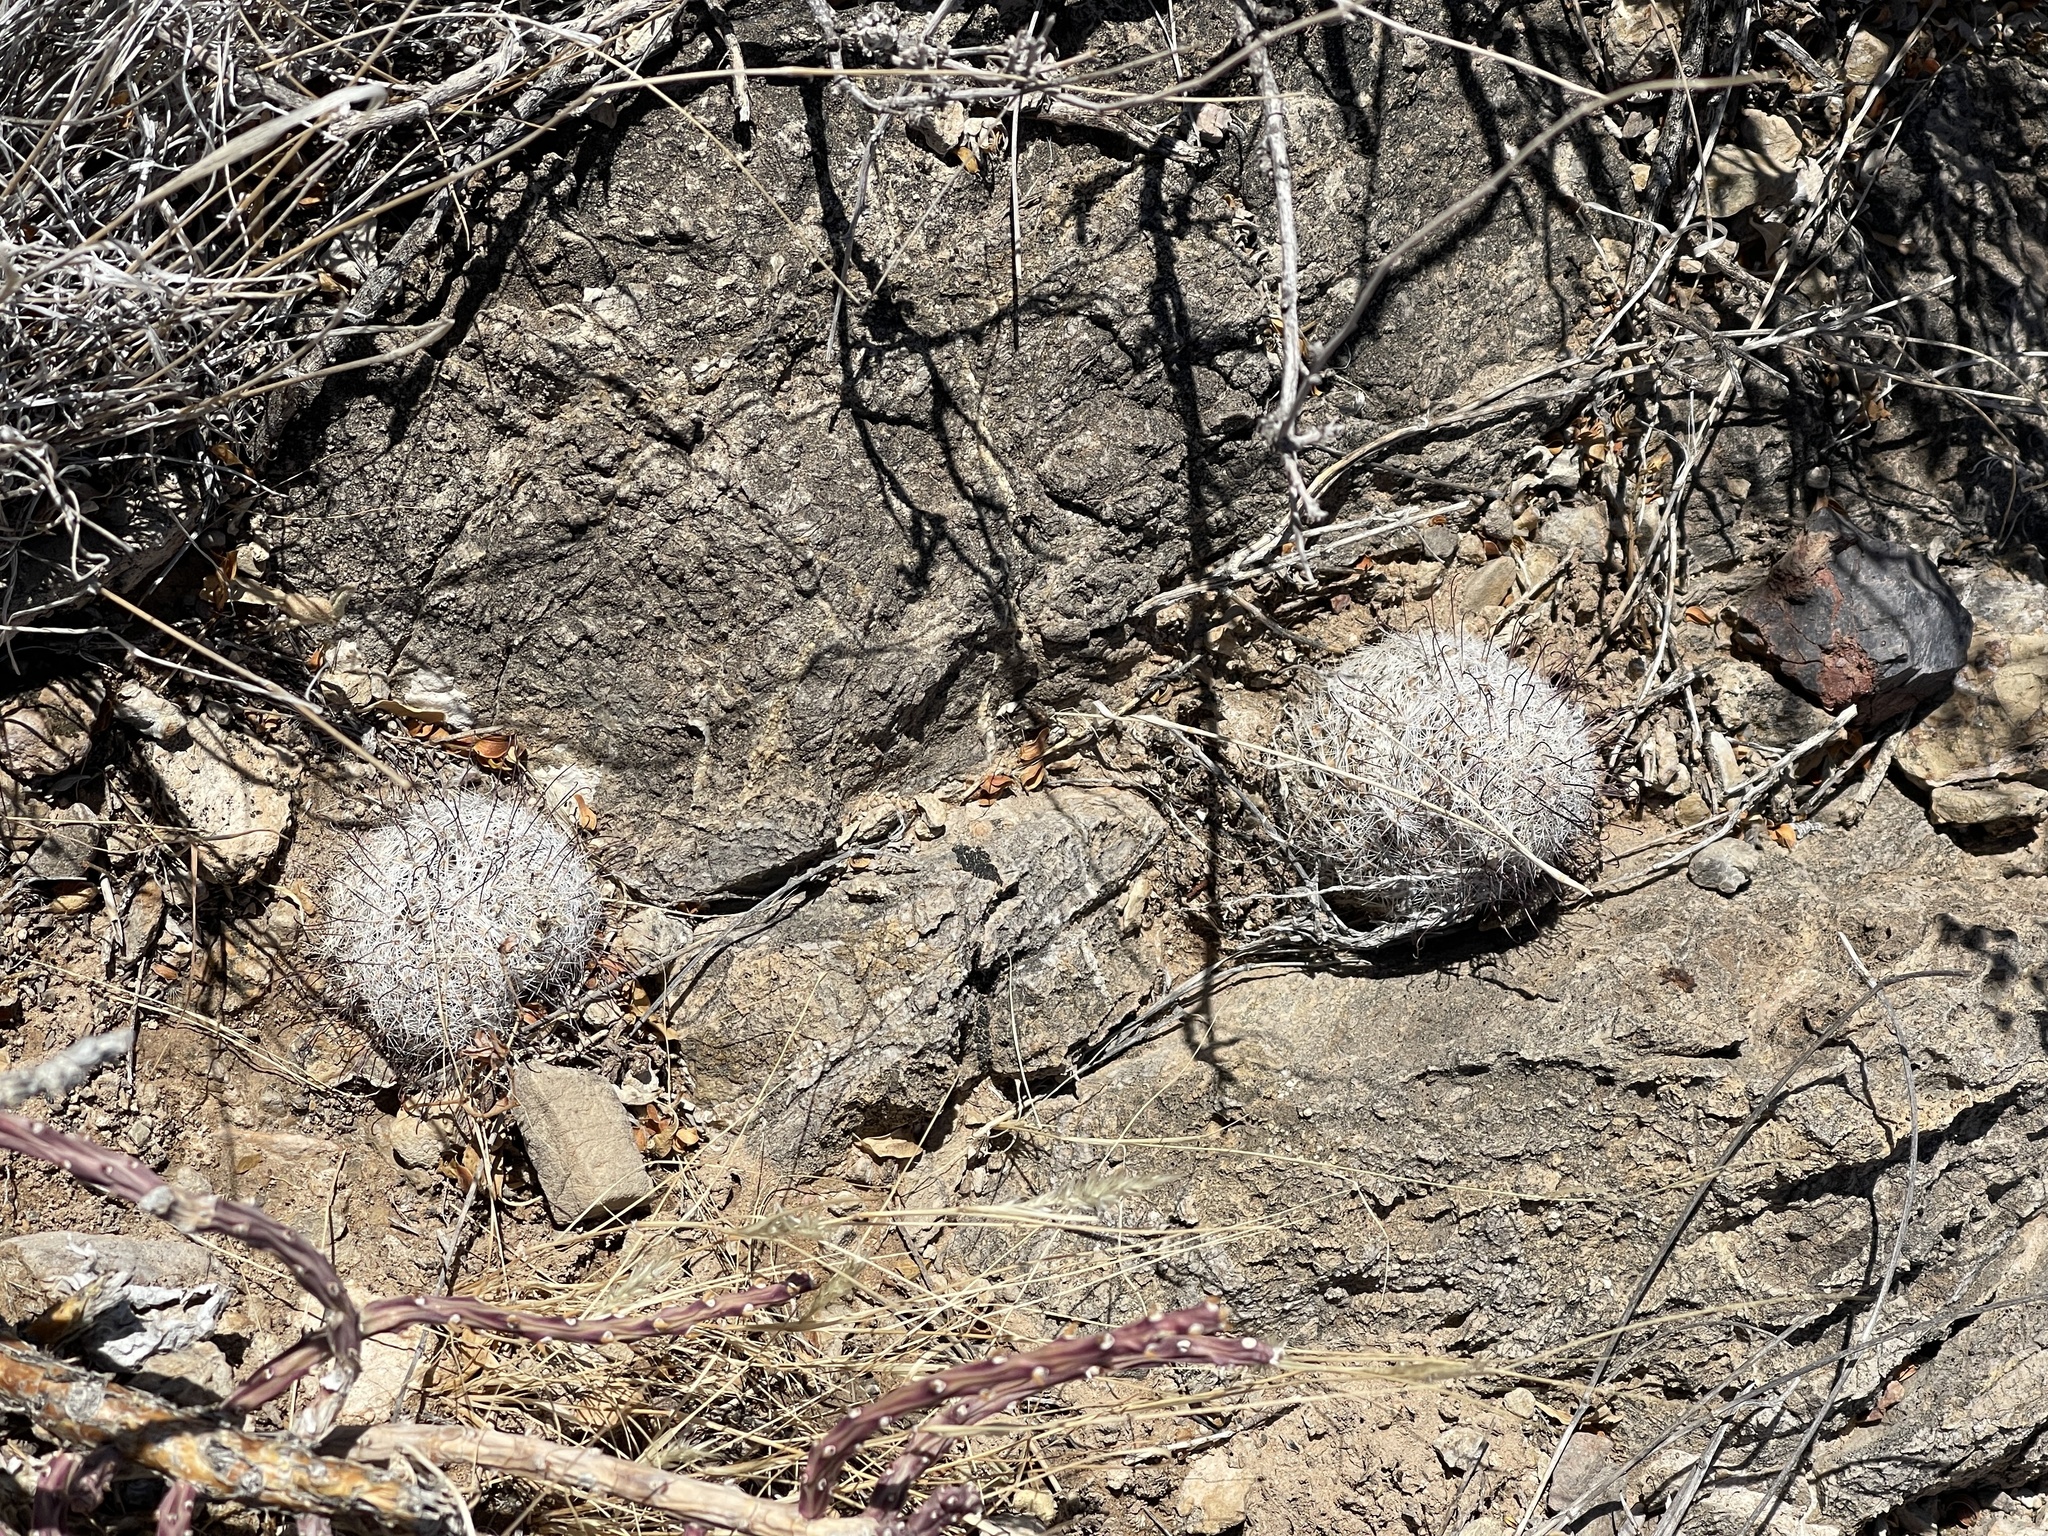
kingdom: Plantae
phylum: Tracheophyta
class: Magnoliopsida
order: Caryophyllales
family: Cactaceae
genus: Cochemiea
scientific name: Cochemiea grahamii
